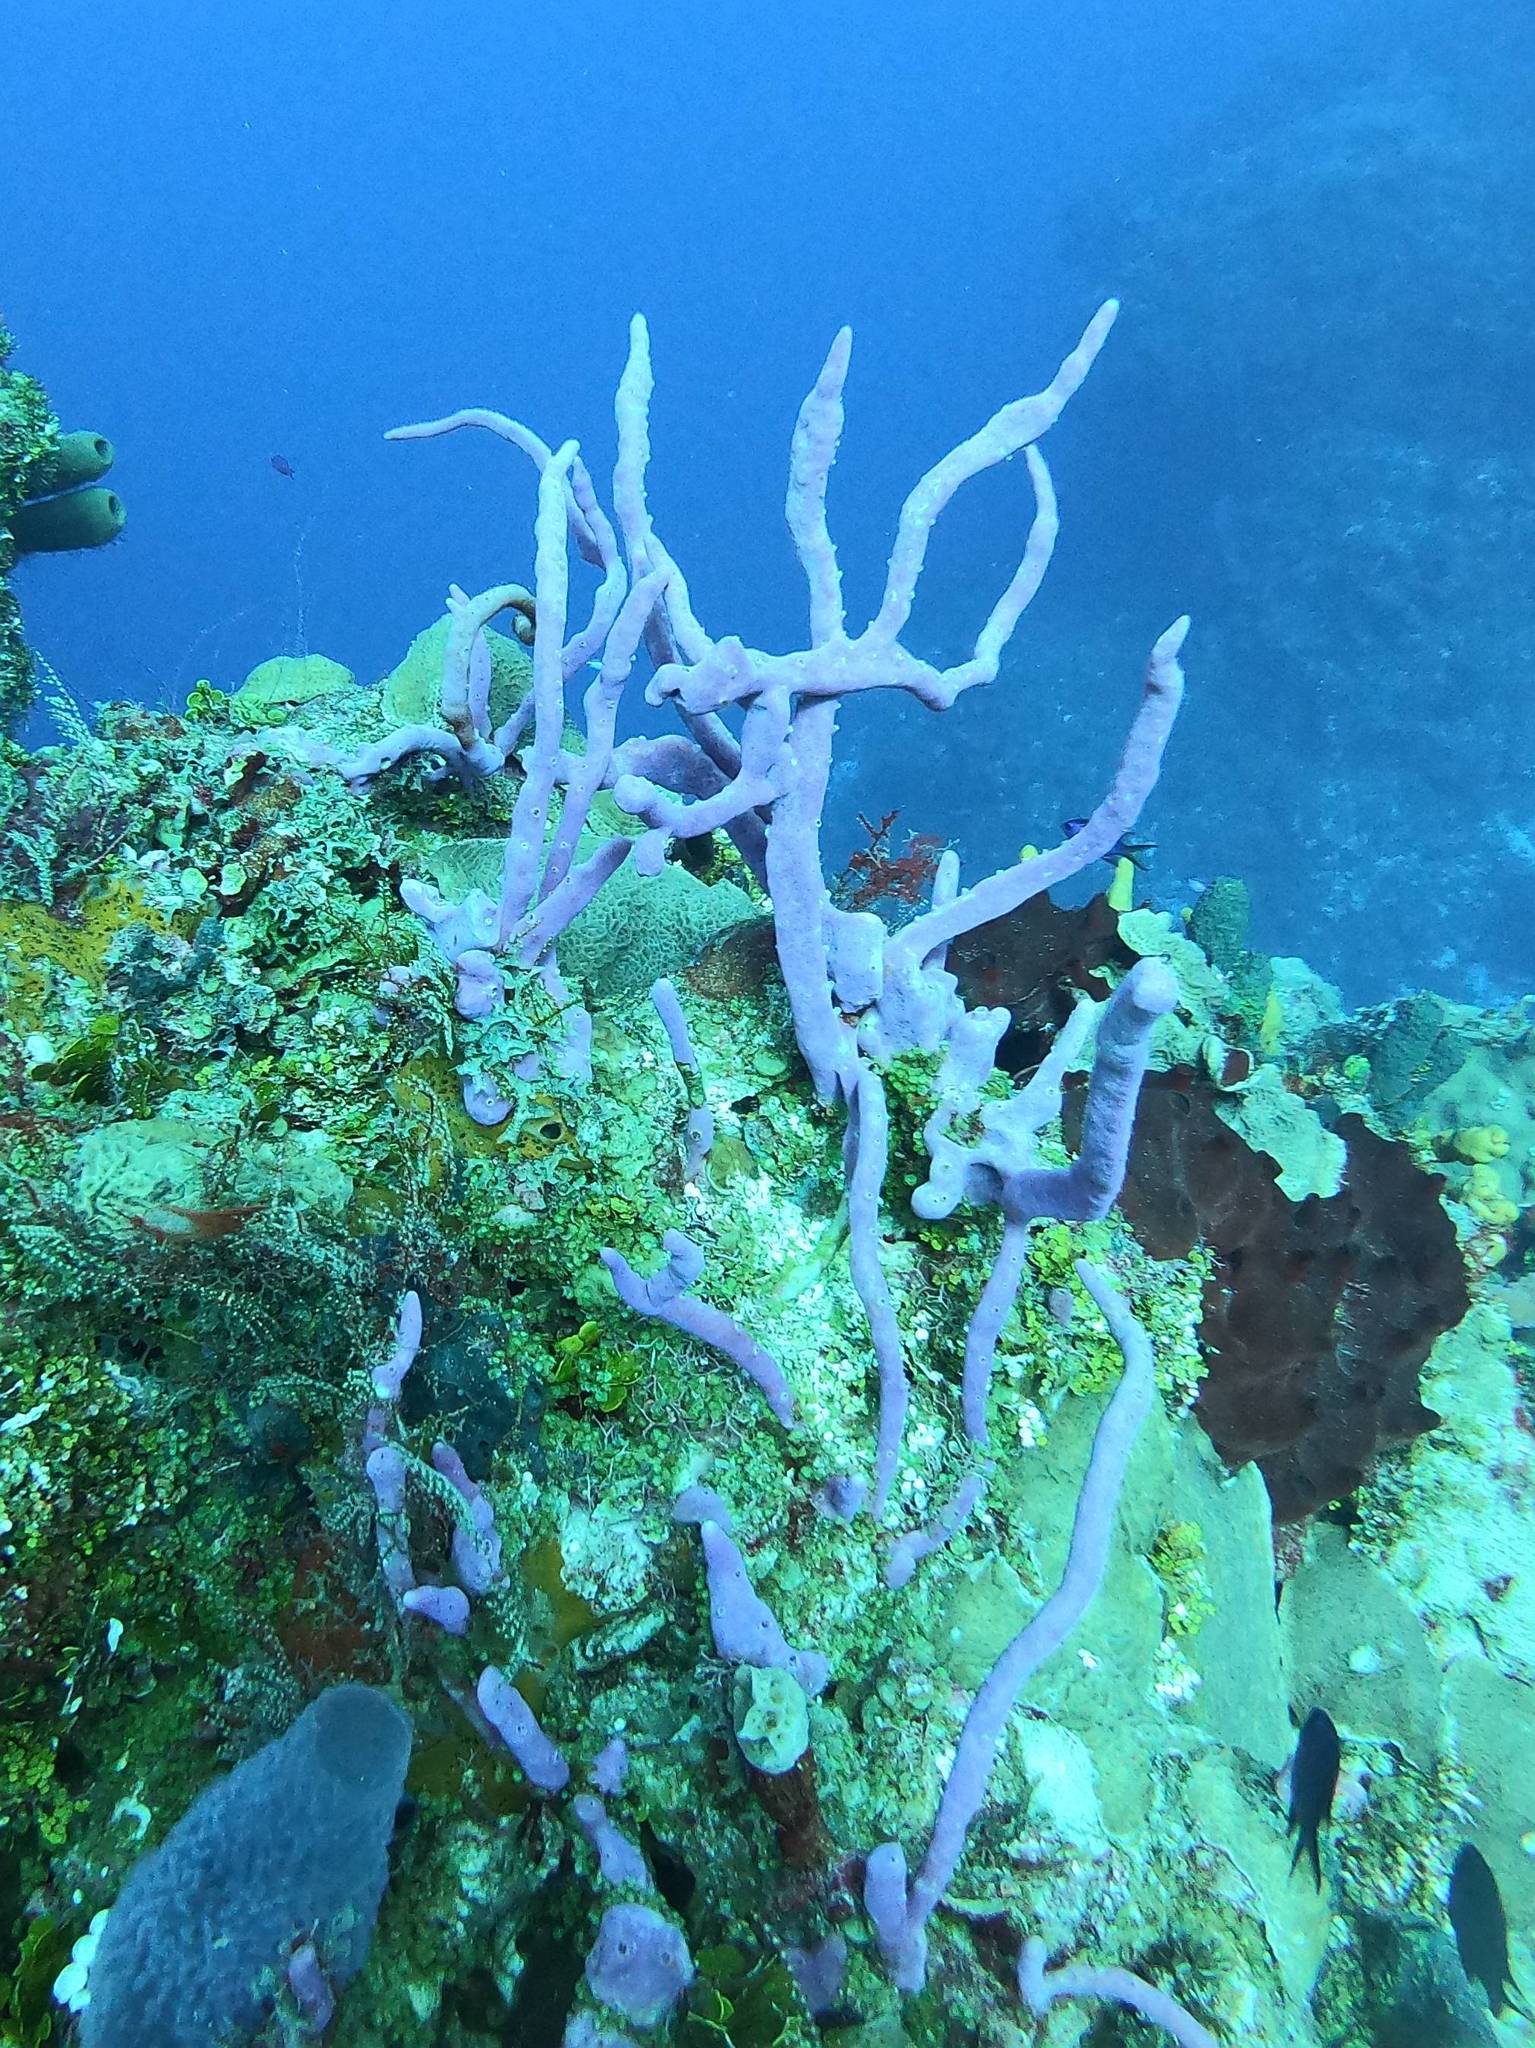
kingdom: Animalia
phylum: Porifera
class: Demospongiae
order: Verongiida
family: Aplysinidae
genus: Aplysina
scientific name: Aplysina cauliformis
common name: Branching candle sponge
